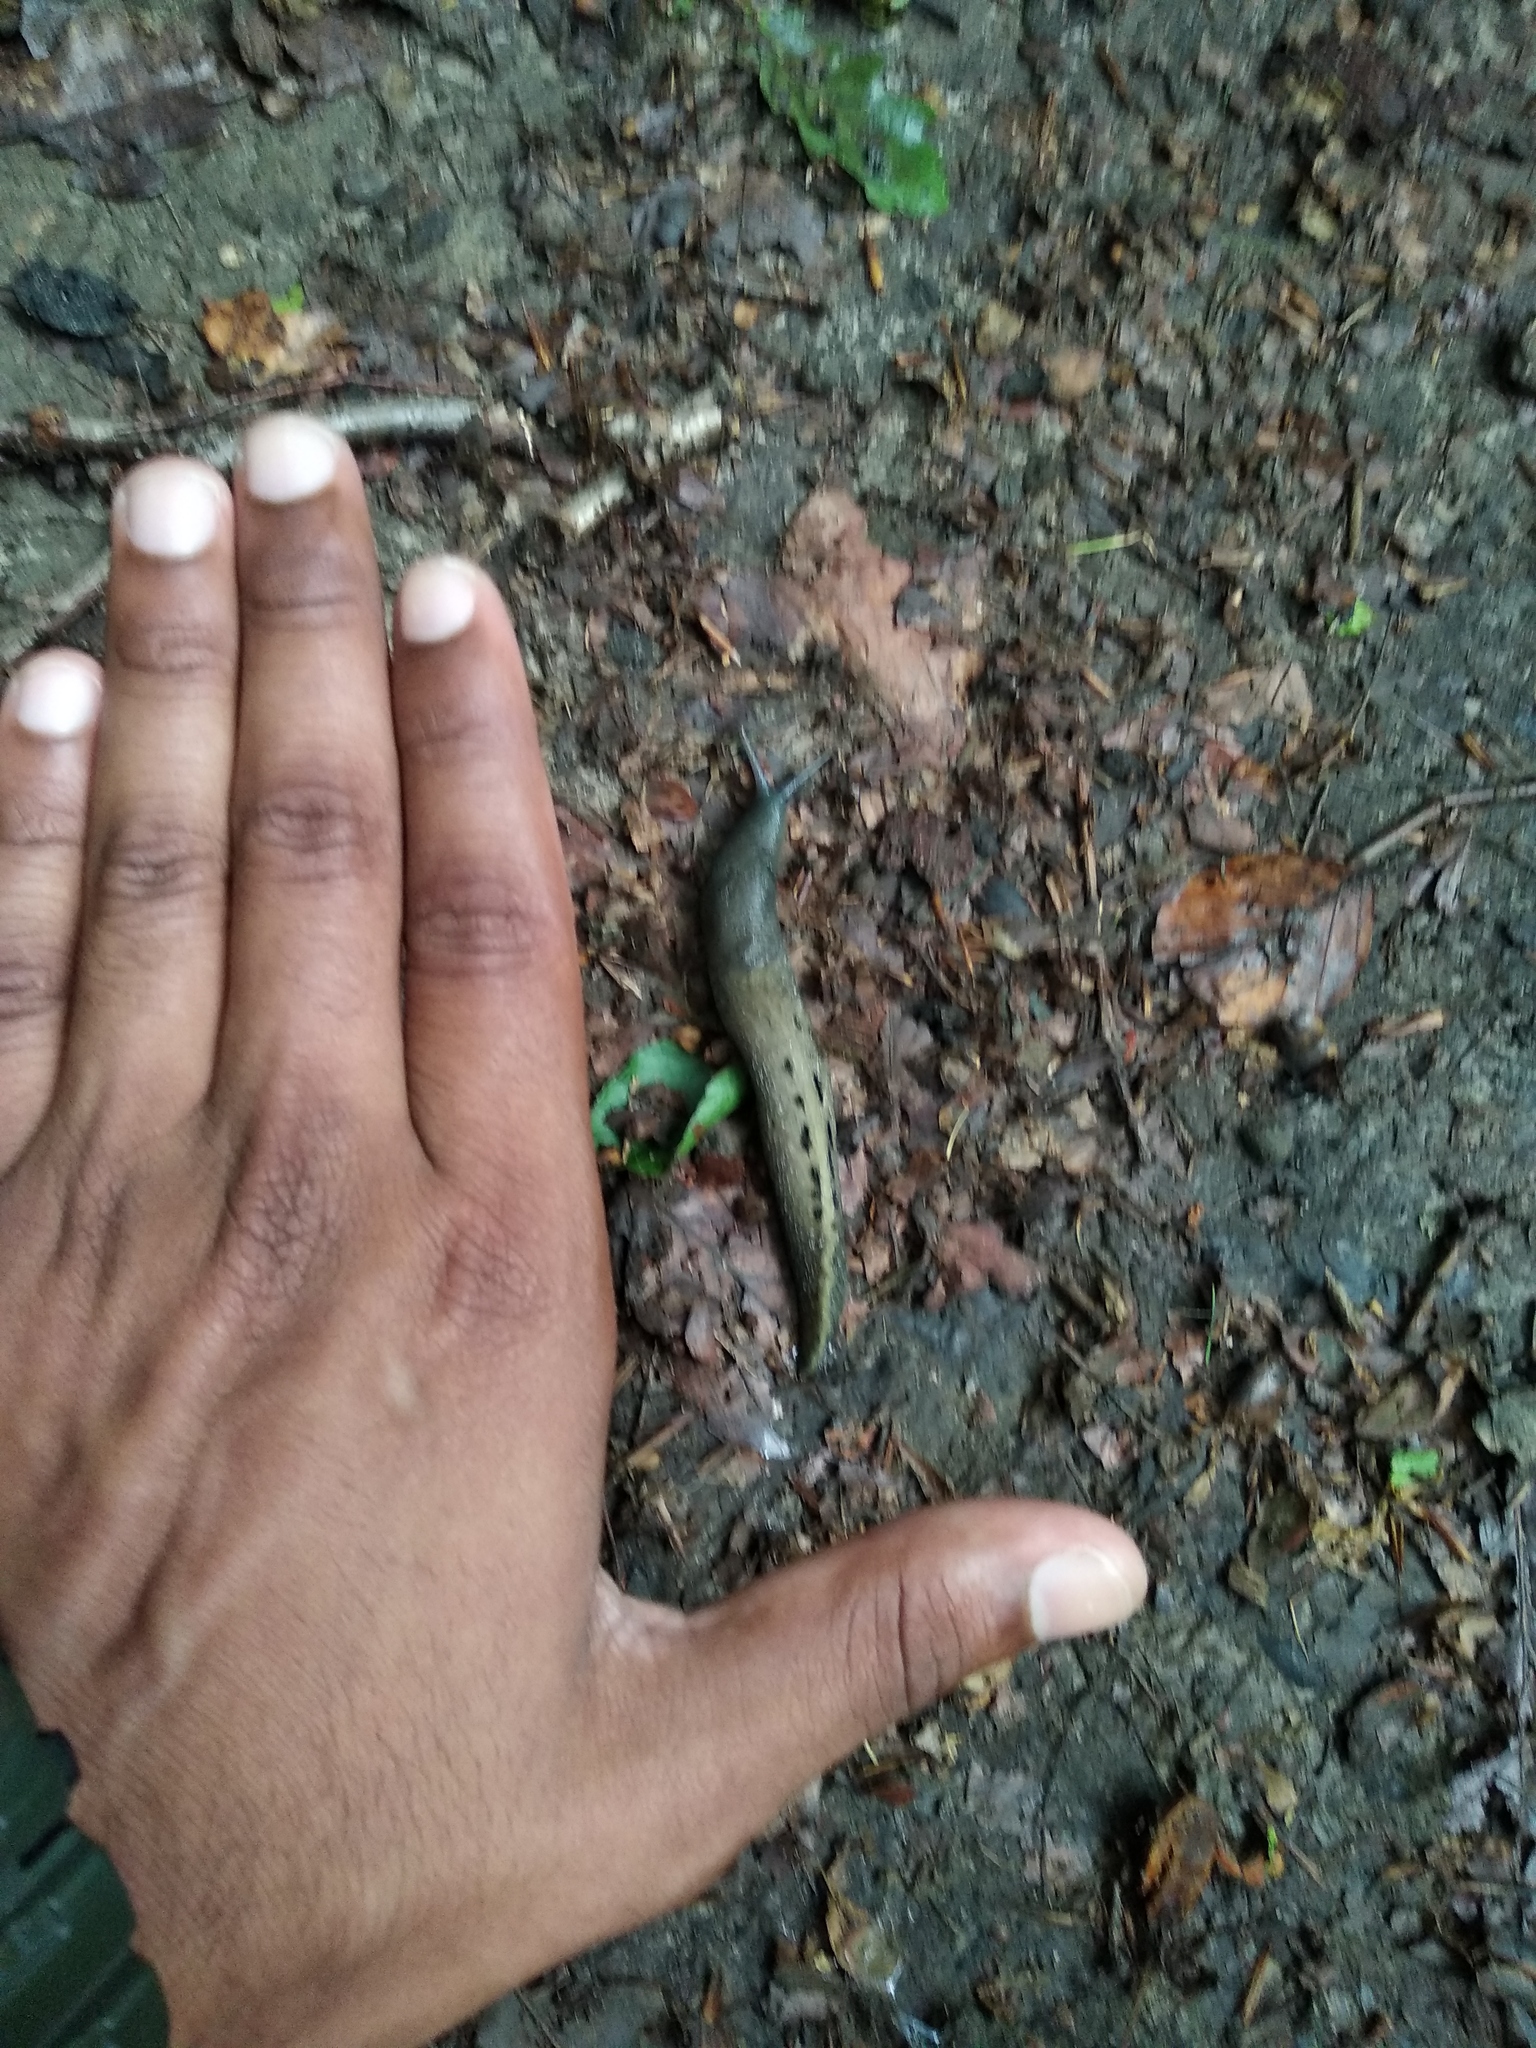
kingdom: Animalia
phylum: Mollusca
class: Gastropoda
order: Stylommatophora
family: Limacidae
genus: Limax
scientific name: Limax cinereoniger
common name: Ash-black slug
